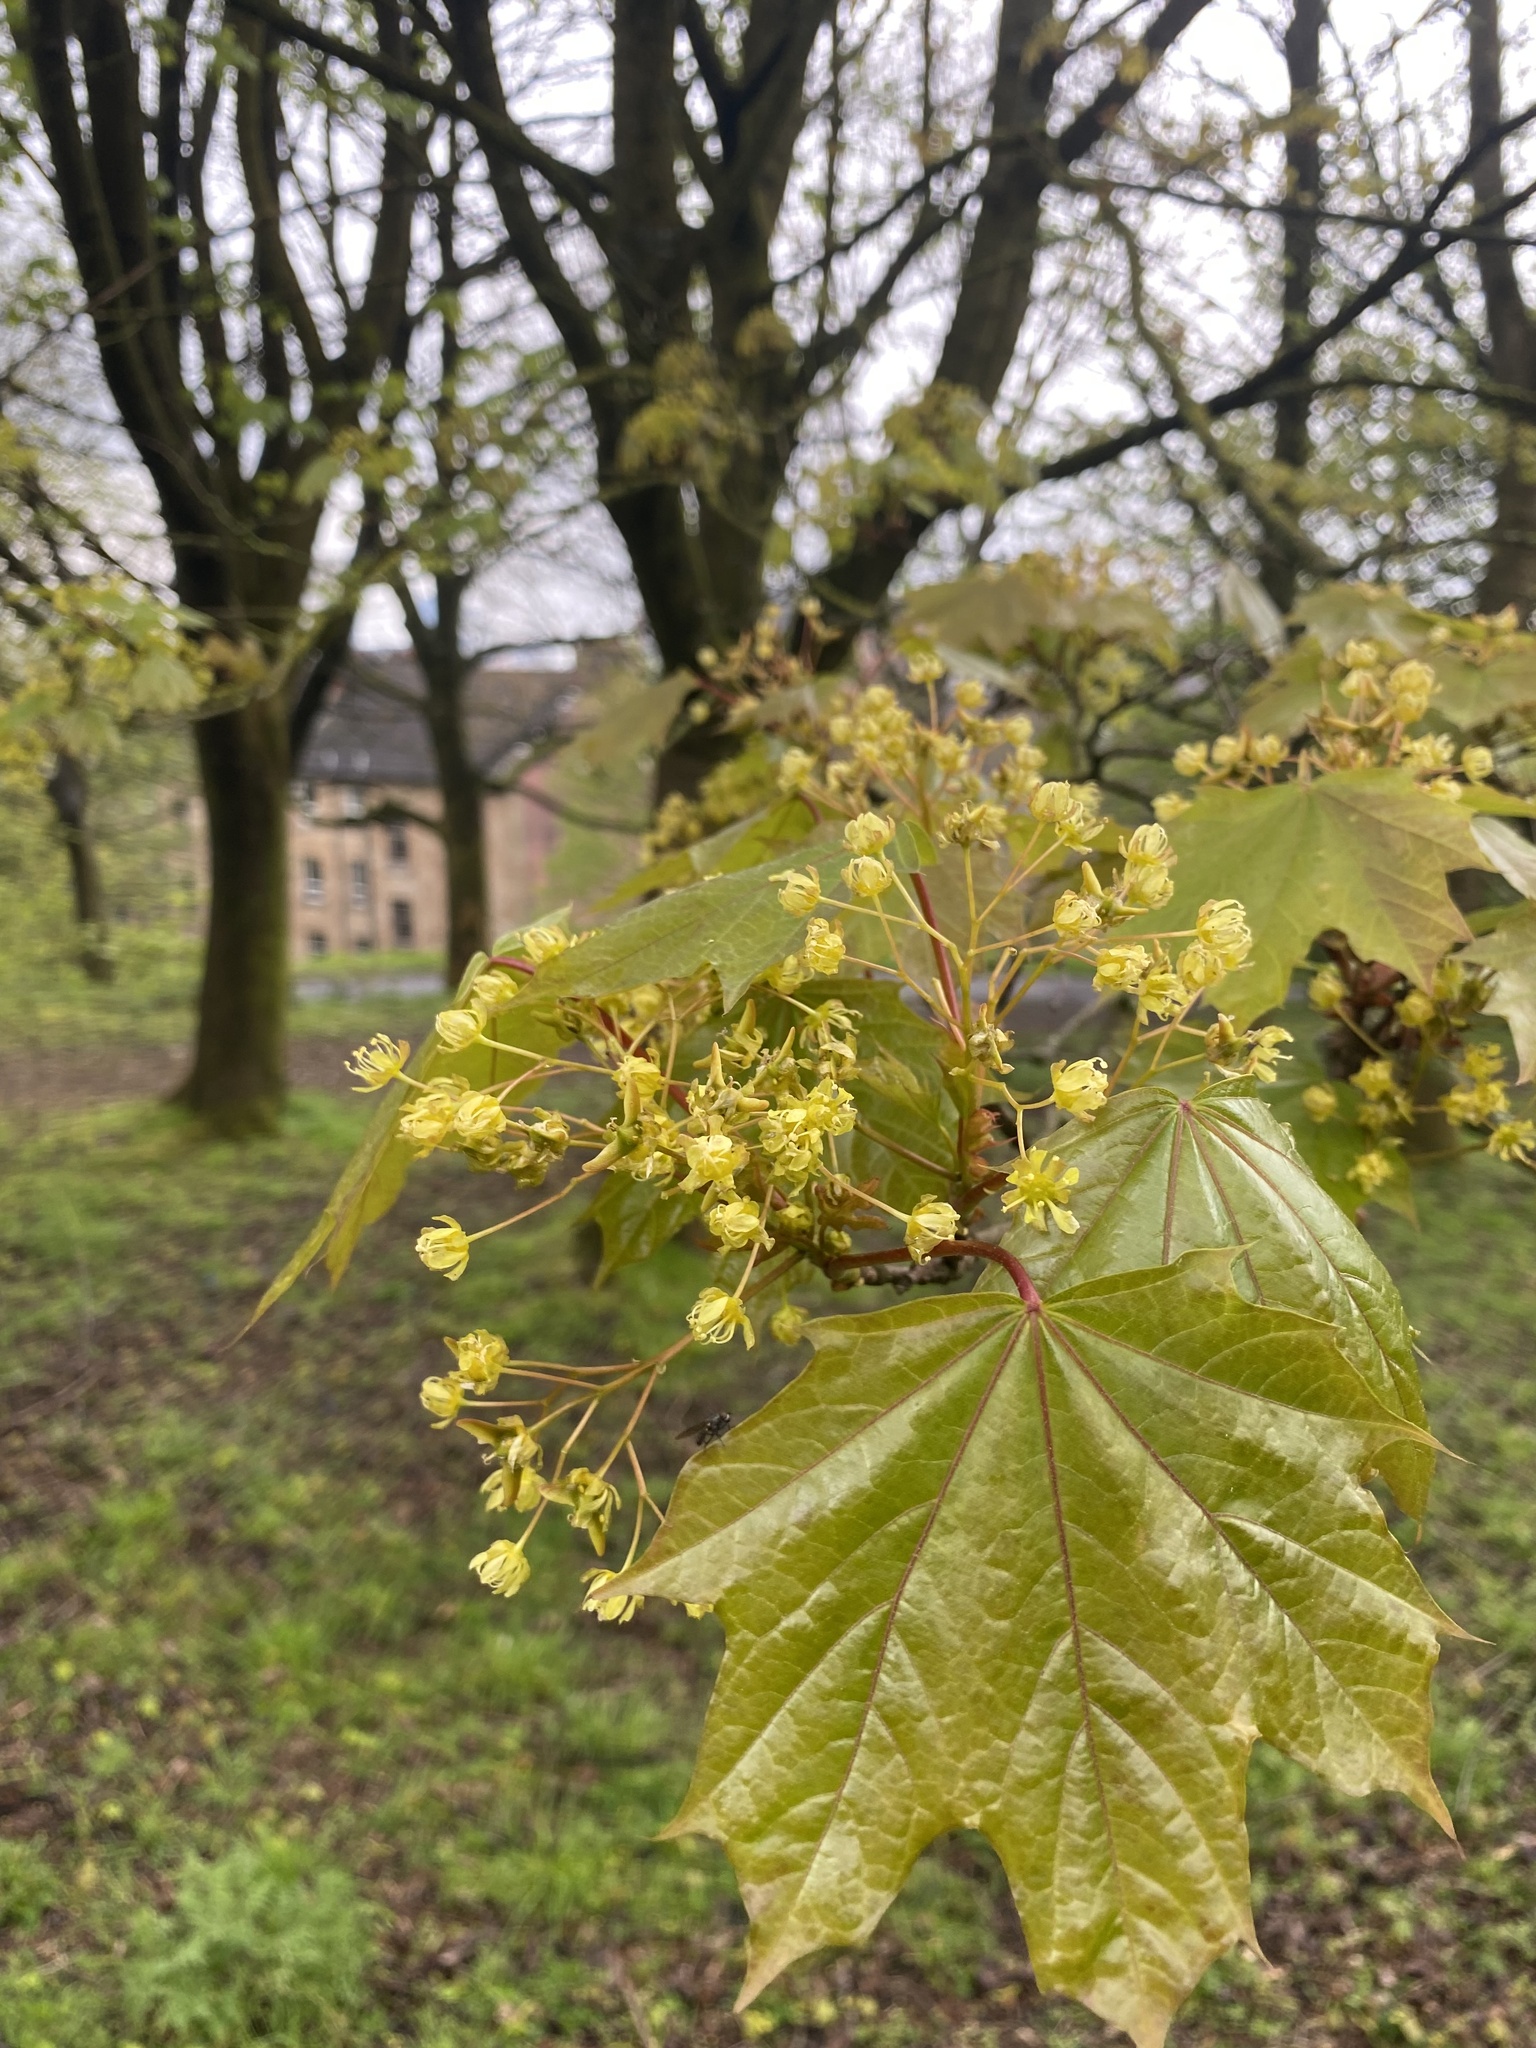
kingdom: Plantae
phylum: Tracheophyta
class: Magnoliopsida
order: Sapindales
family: Sapindaceae
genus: Acer
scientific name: Acer platanoides
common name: Norway maple
